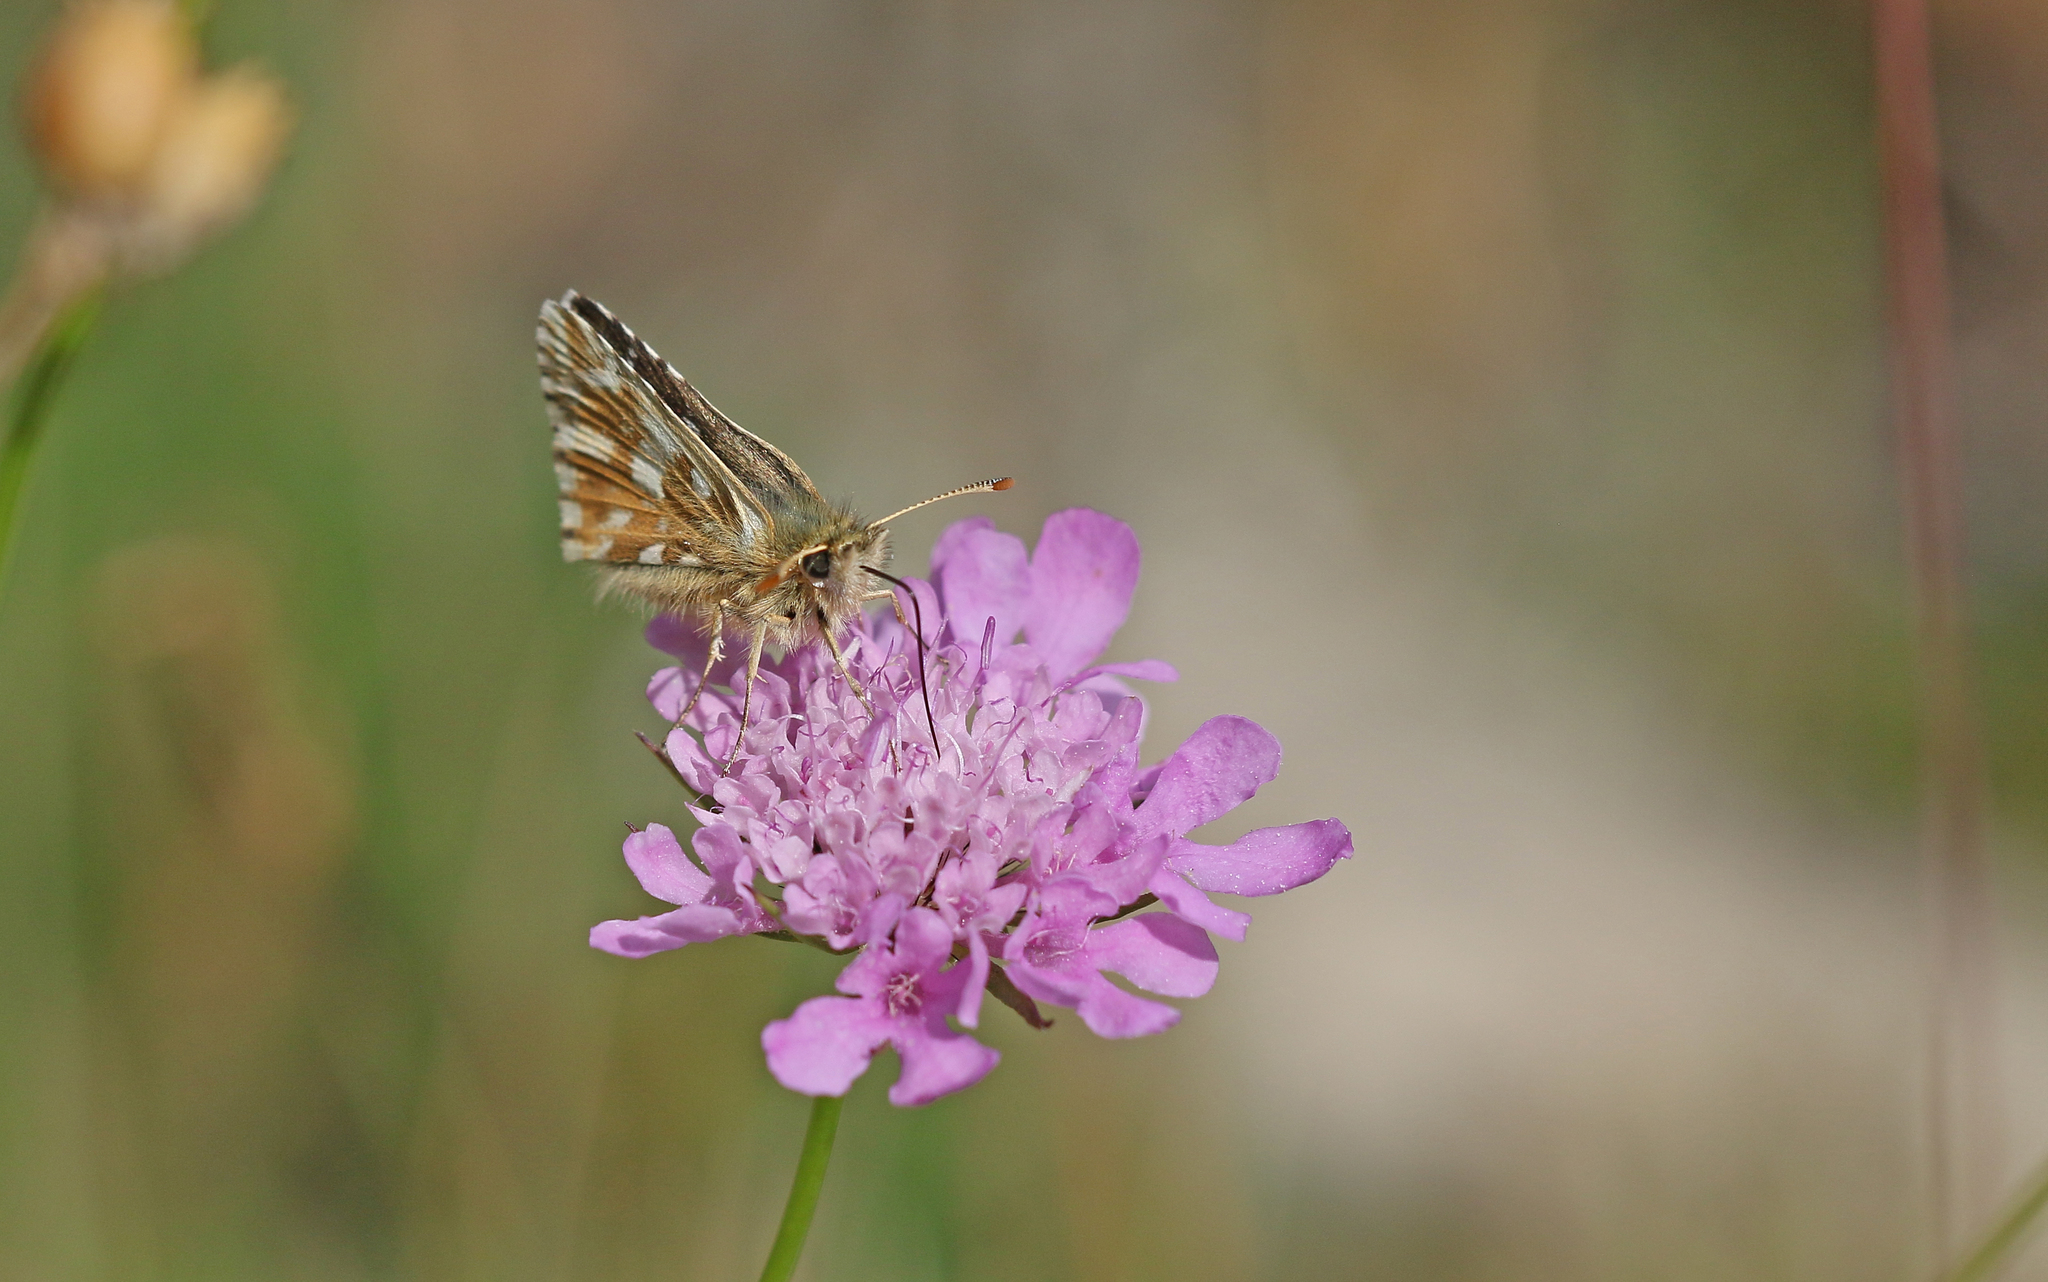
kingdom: Animalia
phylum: Arthropoda
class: Insecta
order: Lepidoptera
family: Hesperiidae
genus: Pyrgus
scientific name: Pyrgus carlinae
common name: Carline skipper
